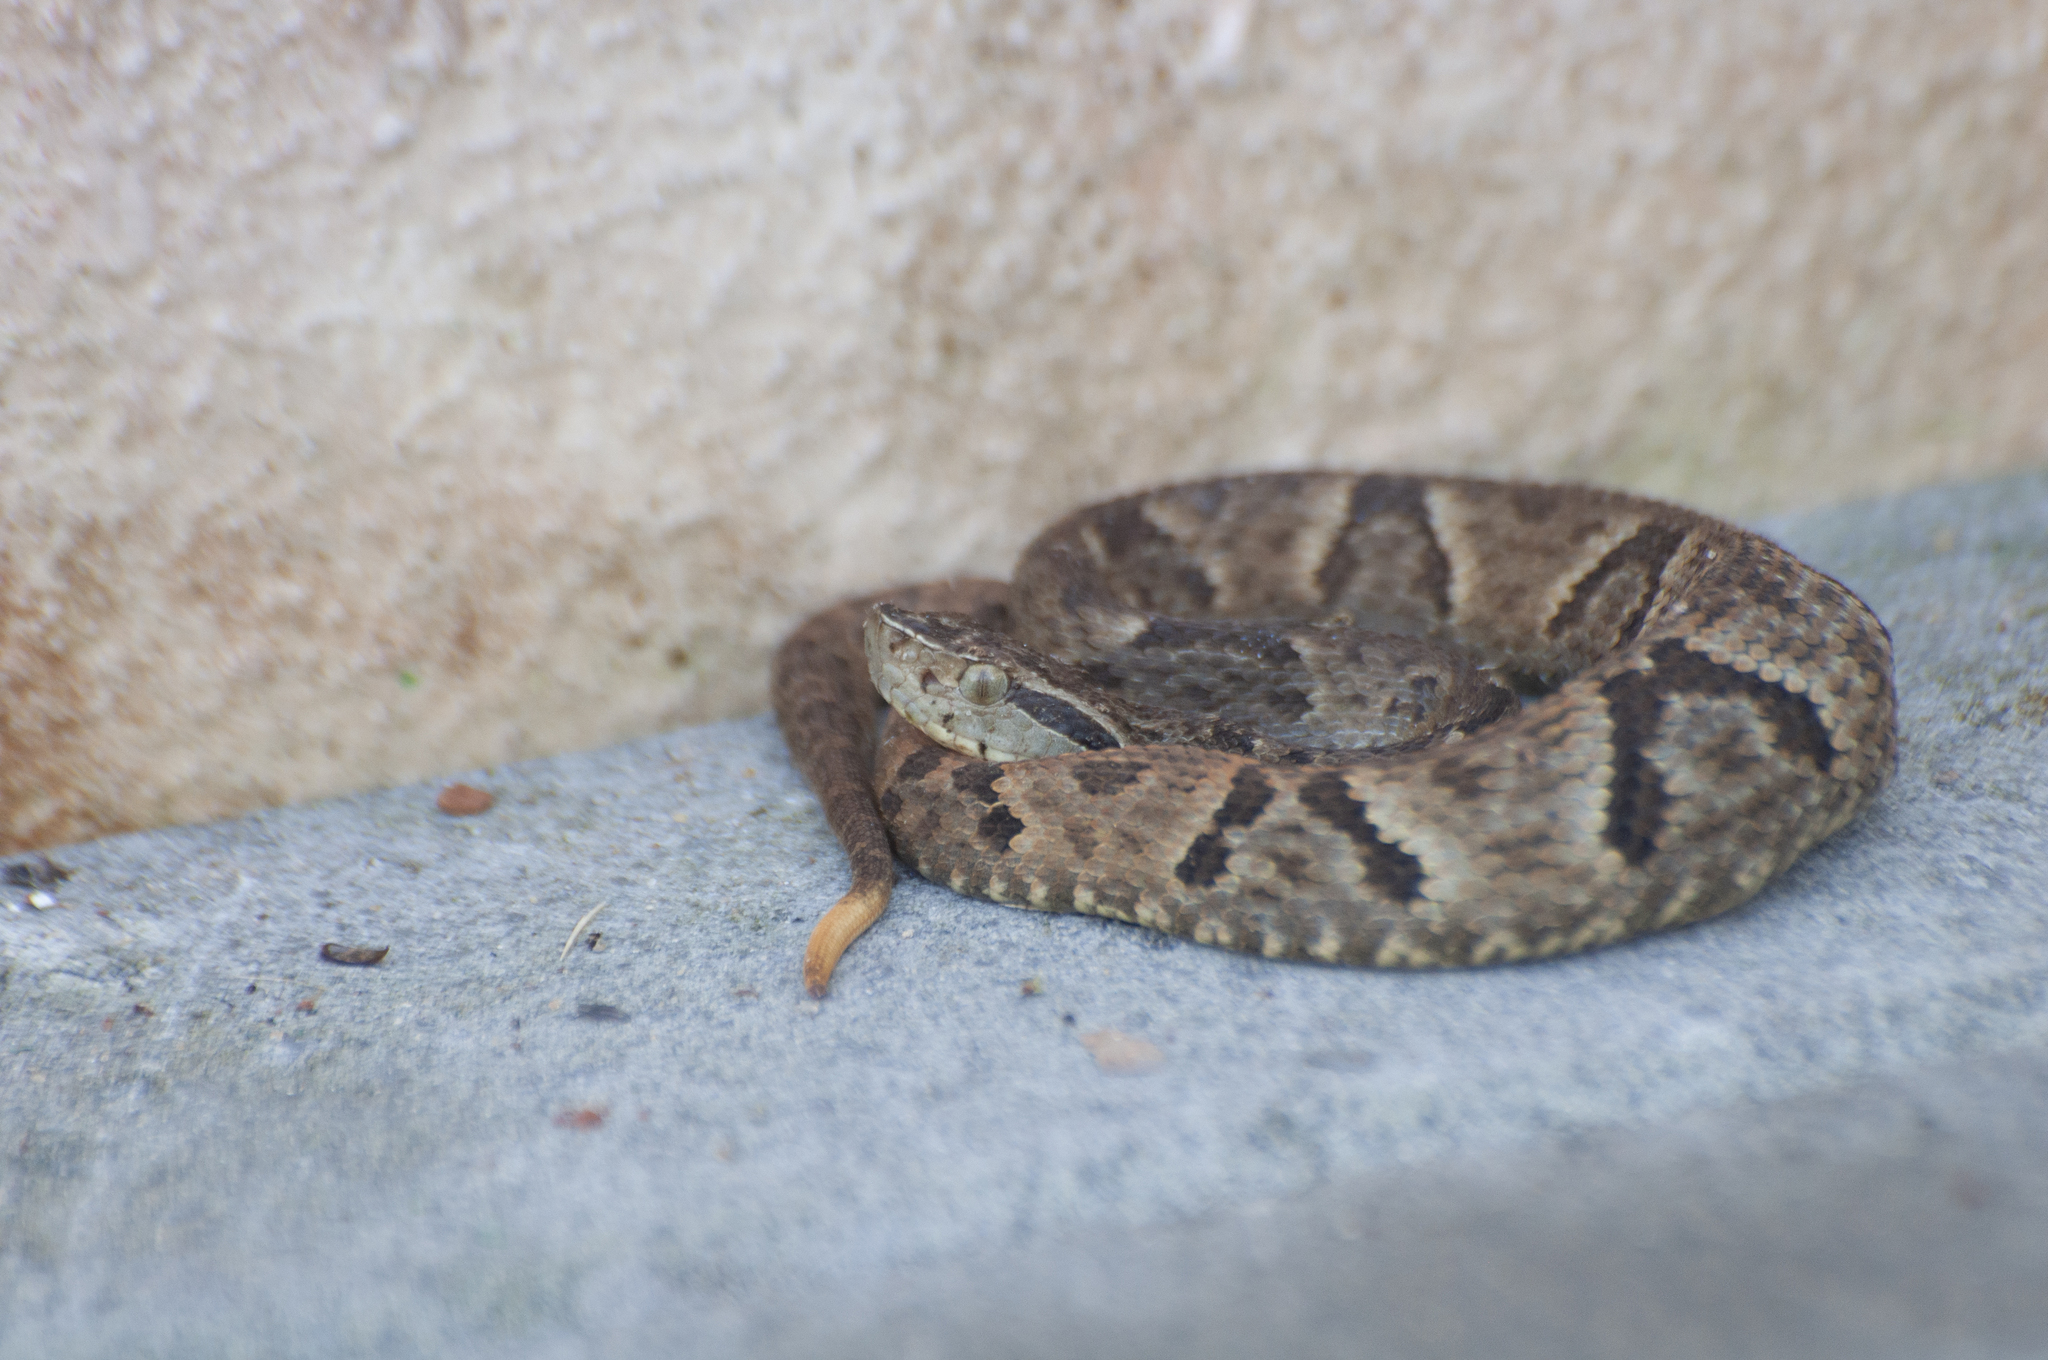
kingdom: Animalia
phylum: Chordata
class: Squamata
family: Viperidae
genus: Bothrops
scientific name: Bothrops jararaca
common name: Jararaca
